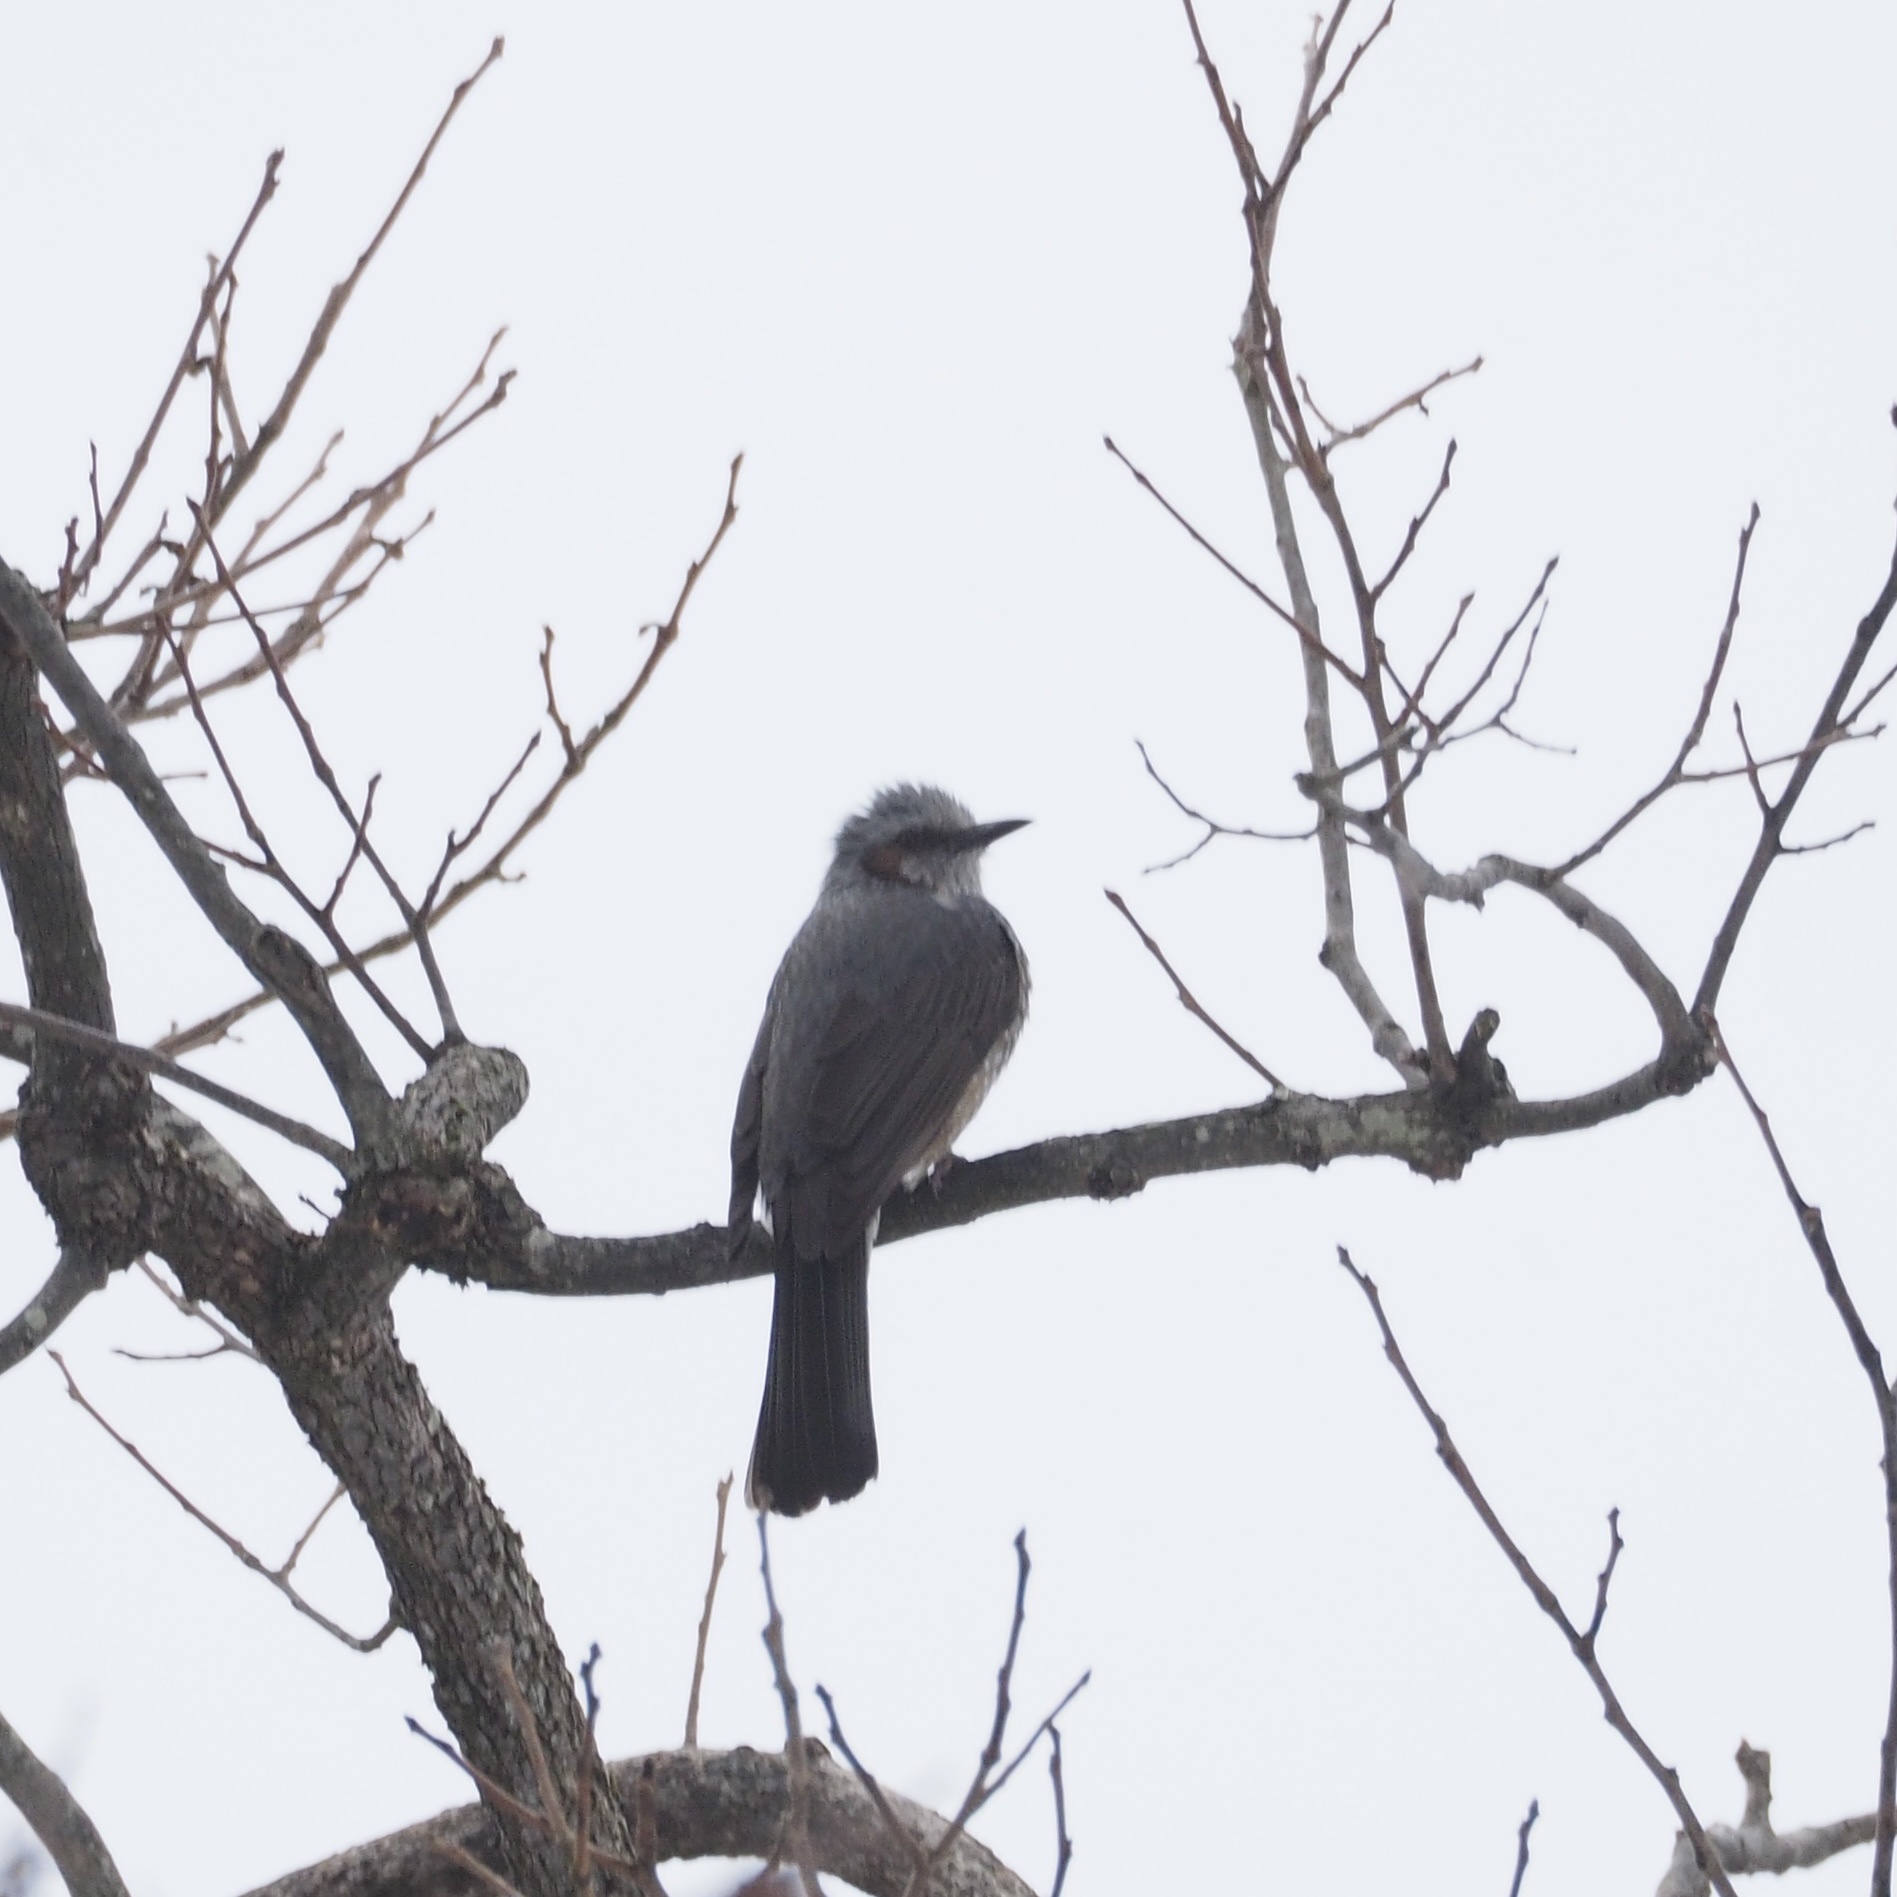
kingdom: Animalia
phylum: Chordata
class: Aves
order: Passeriformes
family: Pycnonotidae
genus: Hypsipetes
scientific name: Hypsipetes amaurotis
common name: Brown-eared bulbul
